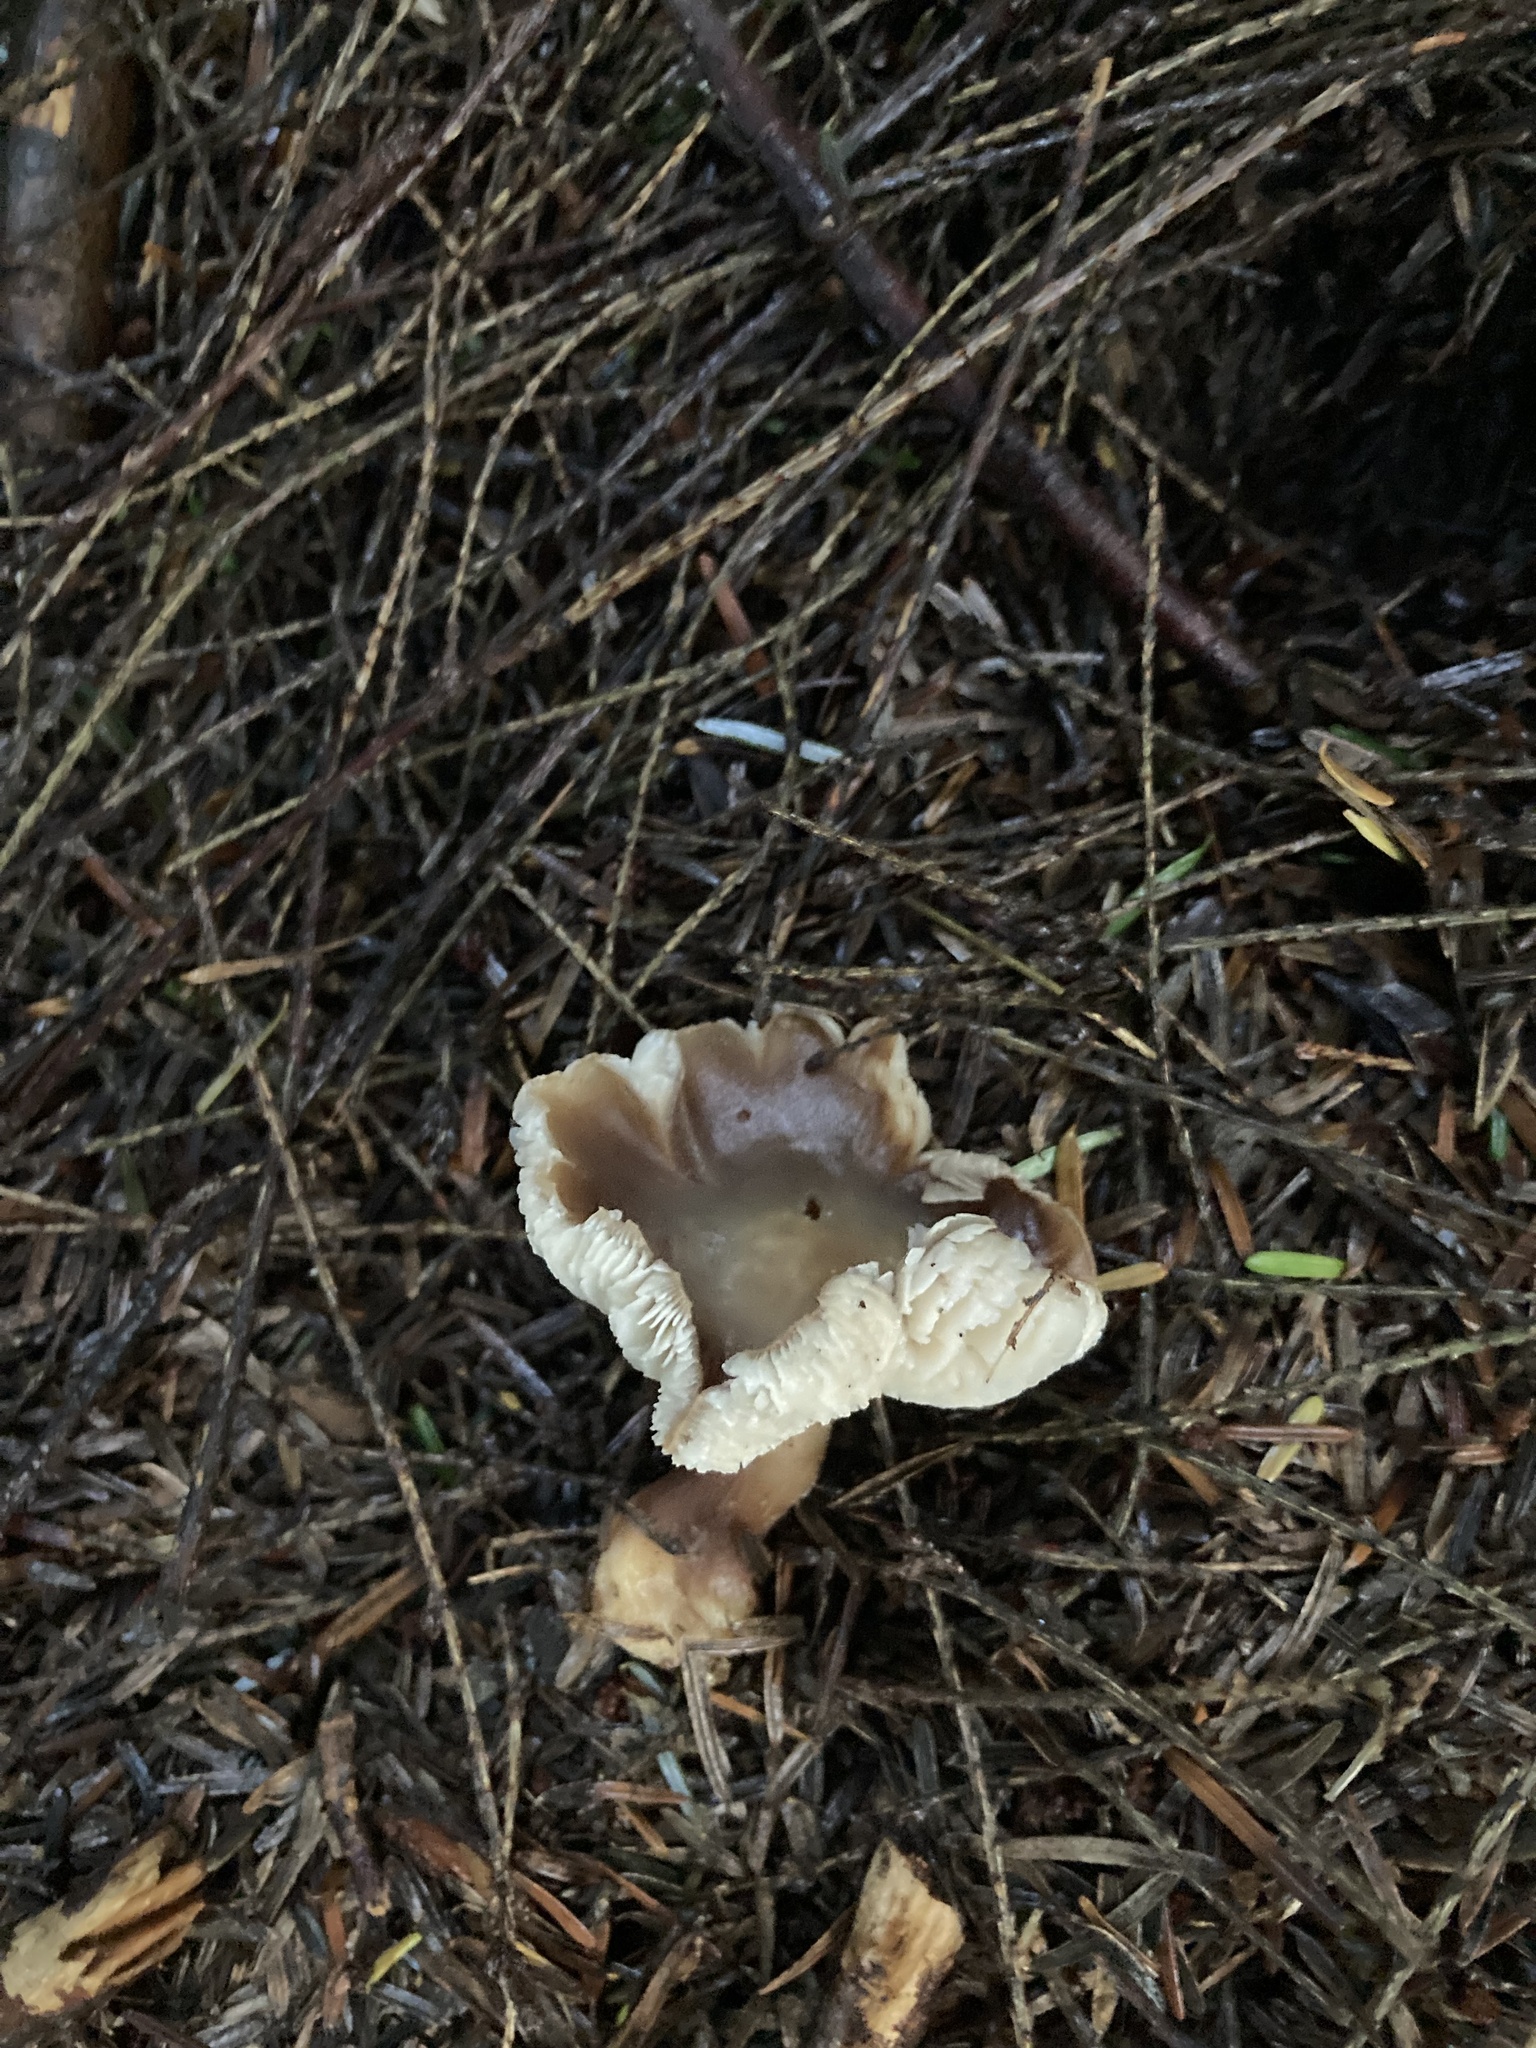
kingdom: Fungi
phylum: Basidiomycota
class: Agaricomycetes
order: Agaricales
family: Omphalotaceae
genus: Rhodocollybia
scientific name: Rhodocollybia butyracea
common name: Butter cap
